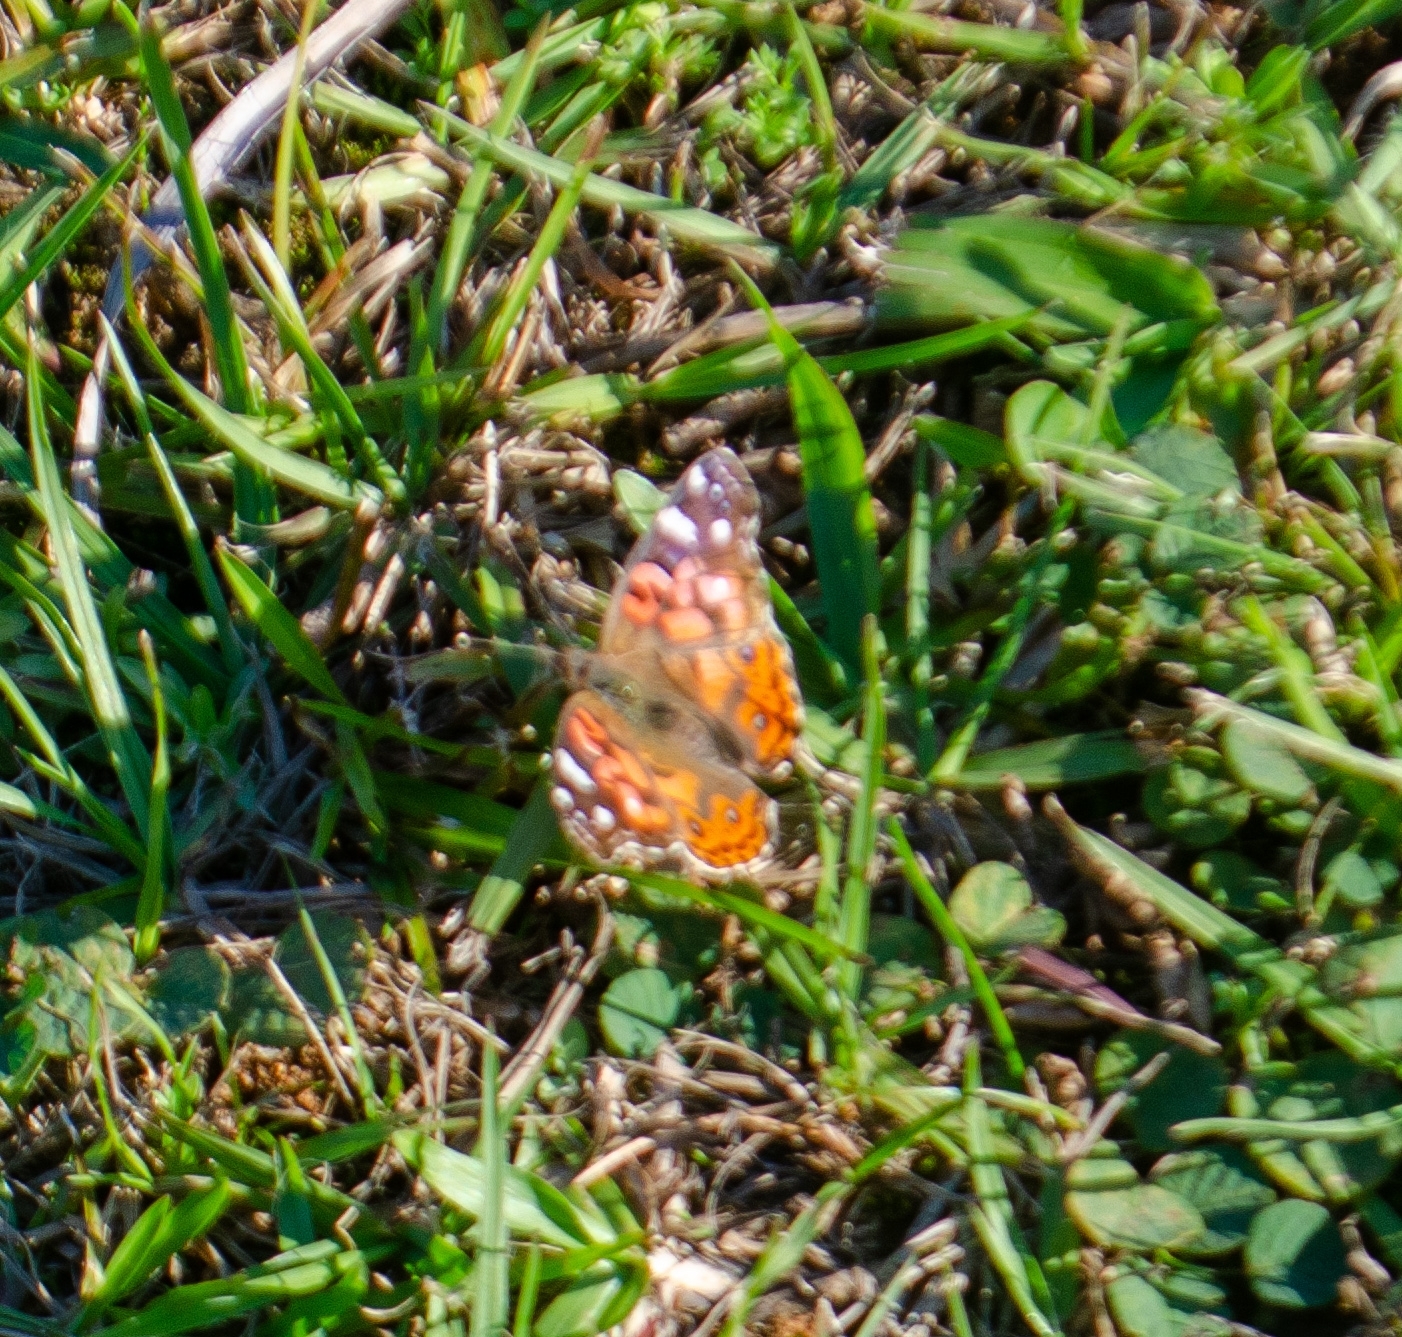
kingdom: Animalia
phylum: Arthropoda
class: Insecta
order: Lepidoptera
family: Nymphalidae
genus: Vanessa
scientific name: Vanessa braziliensis
